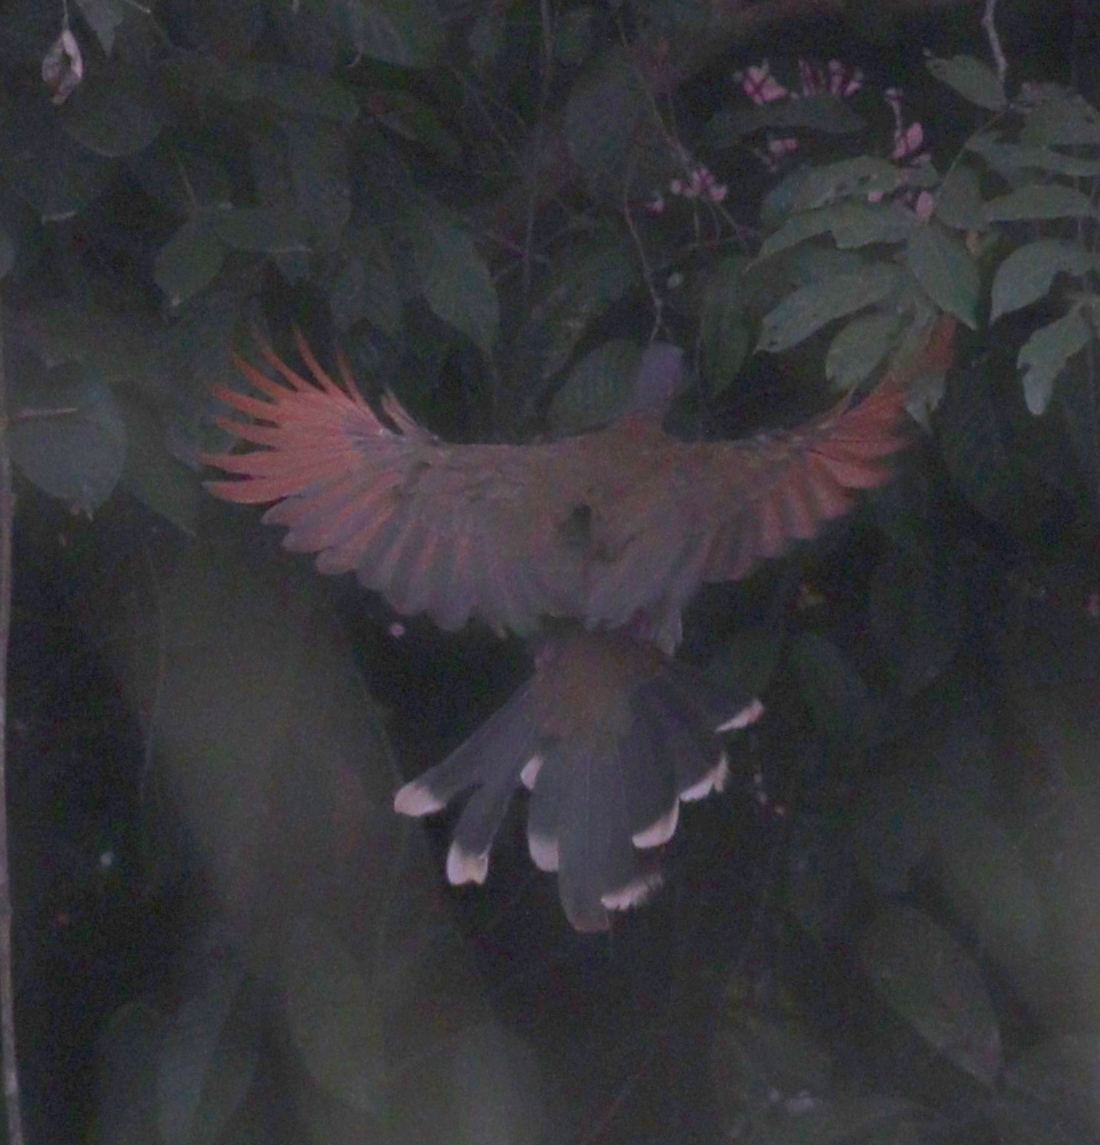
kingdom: Animalia
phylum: Chordata
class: Aves
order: Galliformes
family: Cracidae
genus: Ortalis
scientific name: Ortalis cinereiceps
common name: Grey-headed chachalaca
